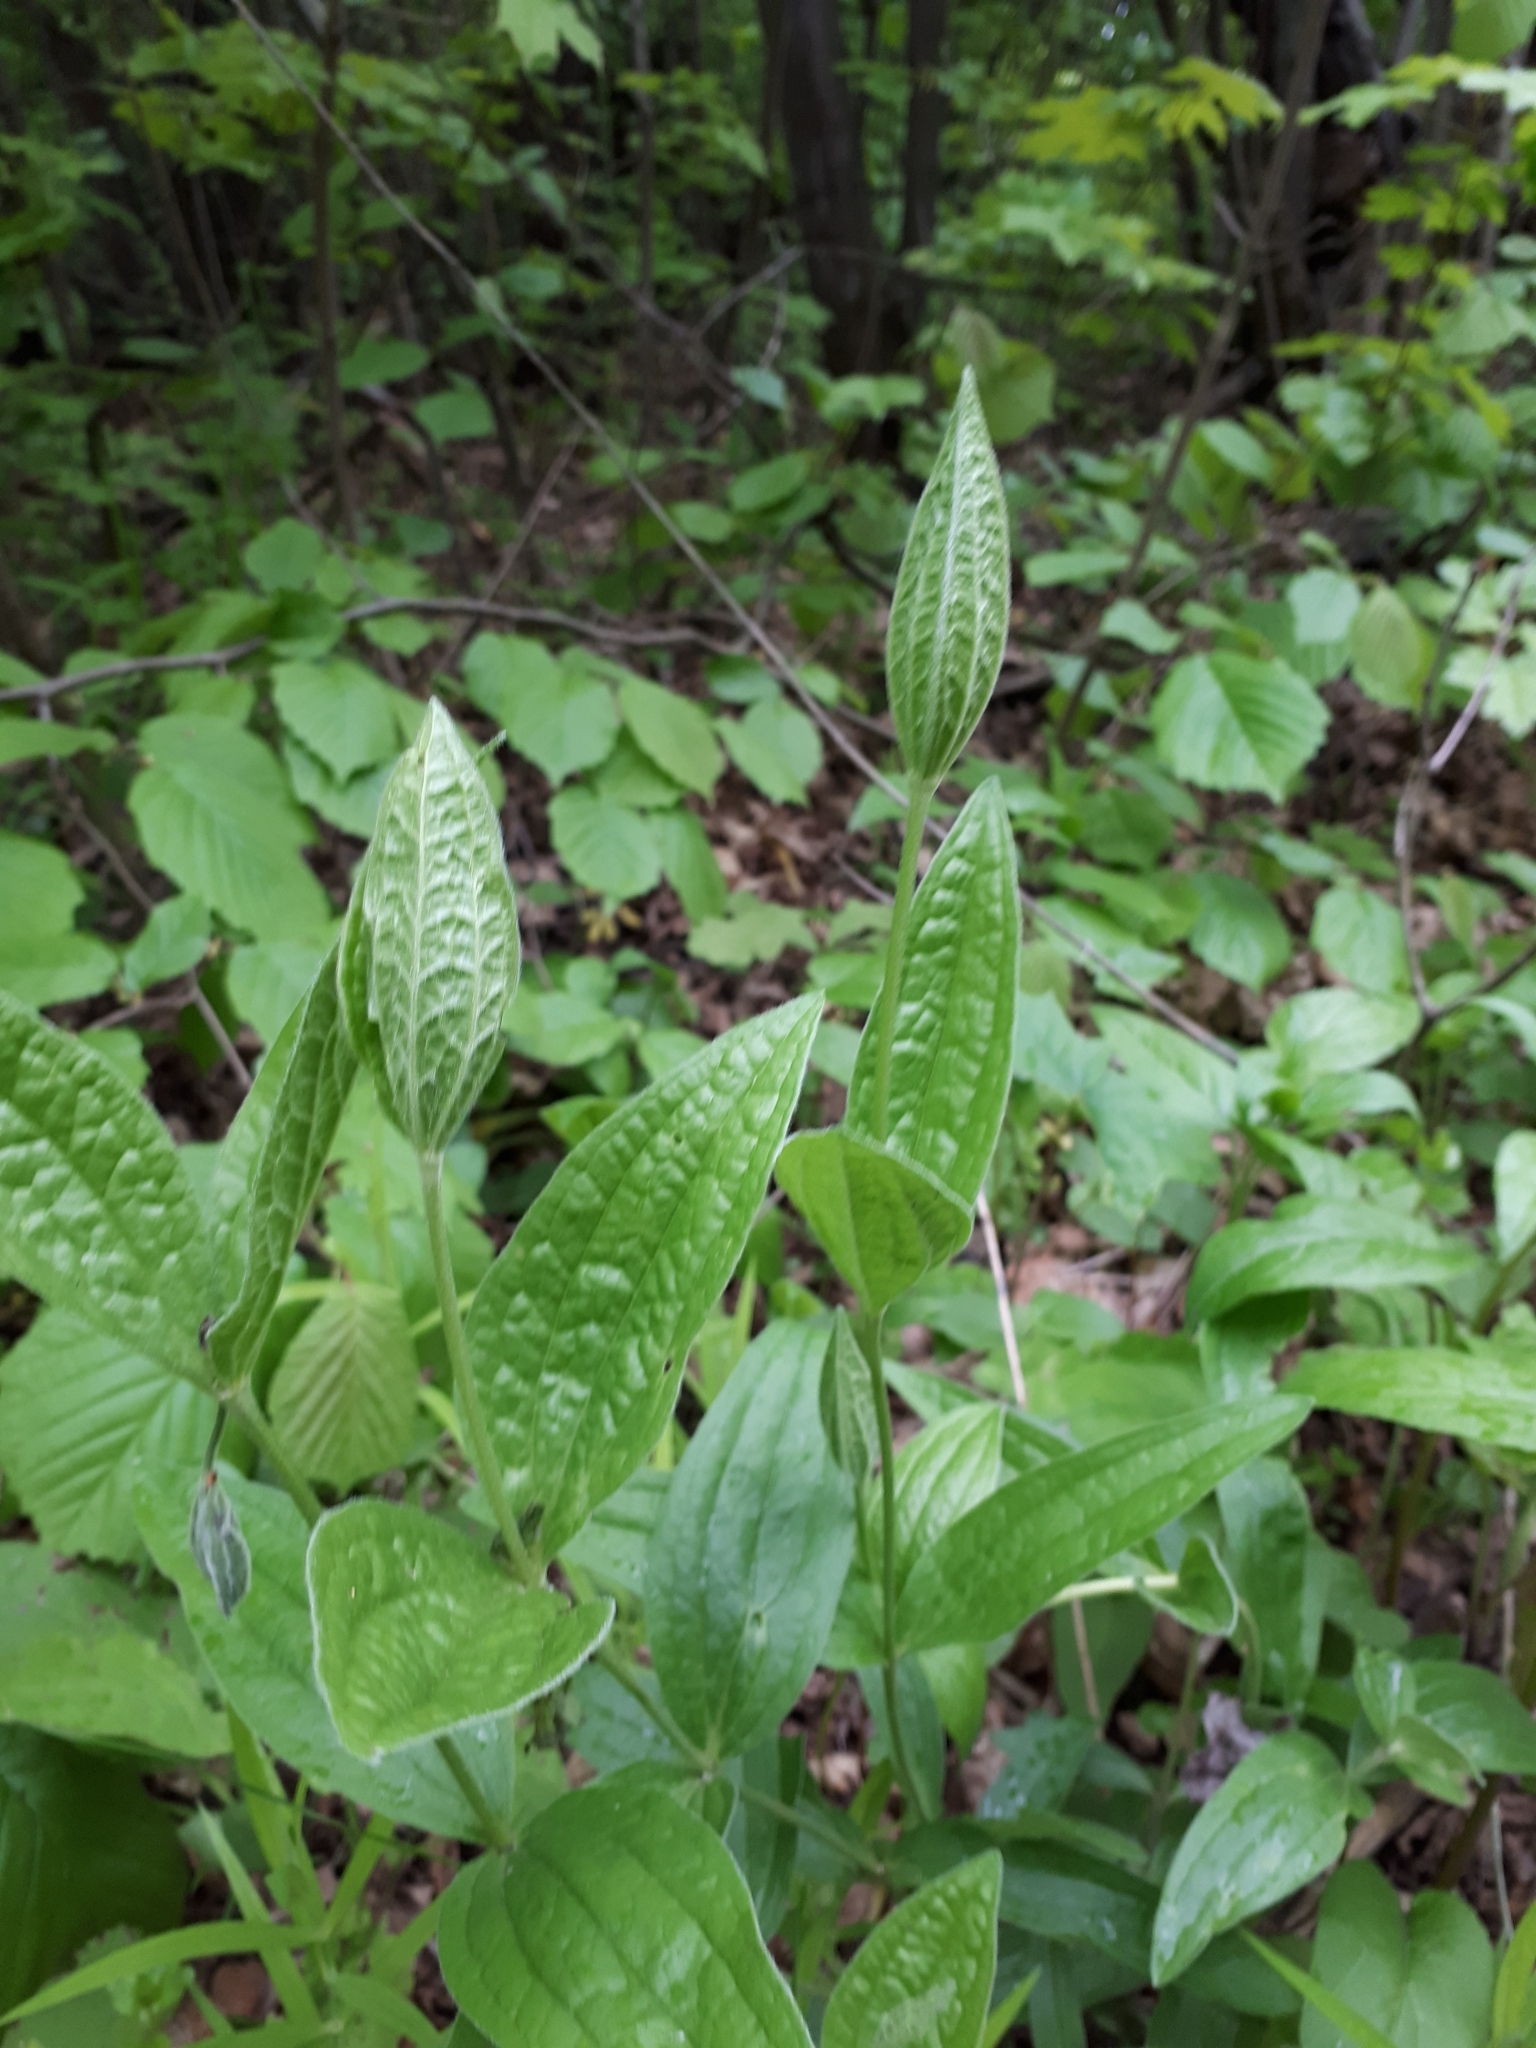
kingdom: Plantae
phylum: Tracheophyta
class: Magnoliopsida
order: Ranunculales
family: Ranunculaceae
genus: Clematis
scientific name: Clematis integrifolia
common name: Solitary clematis
